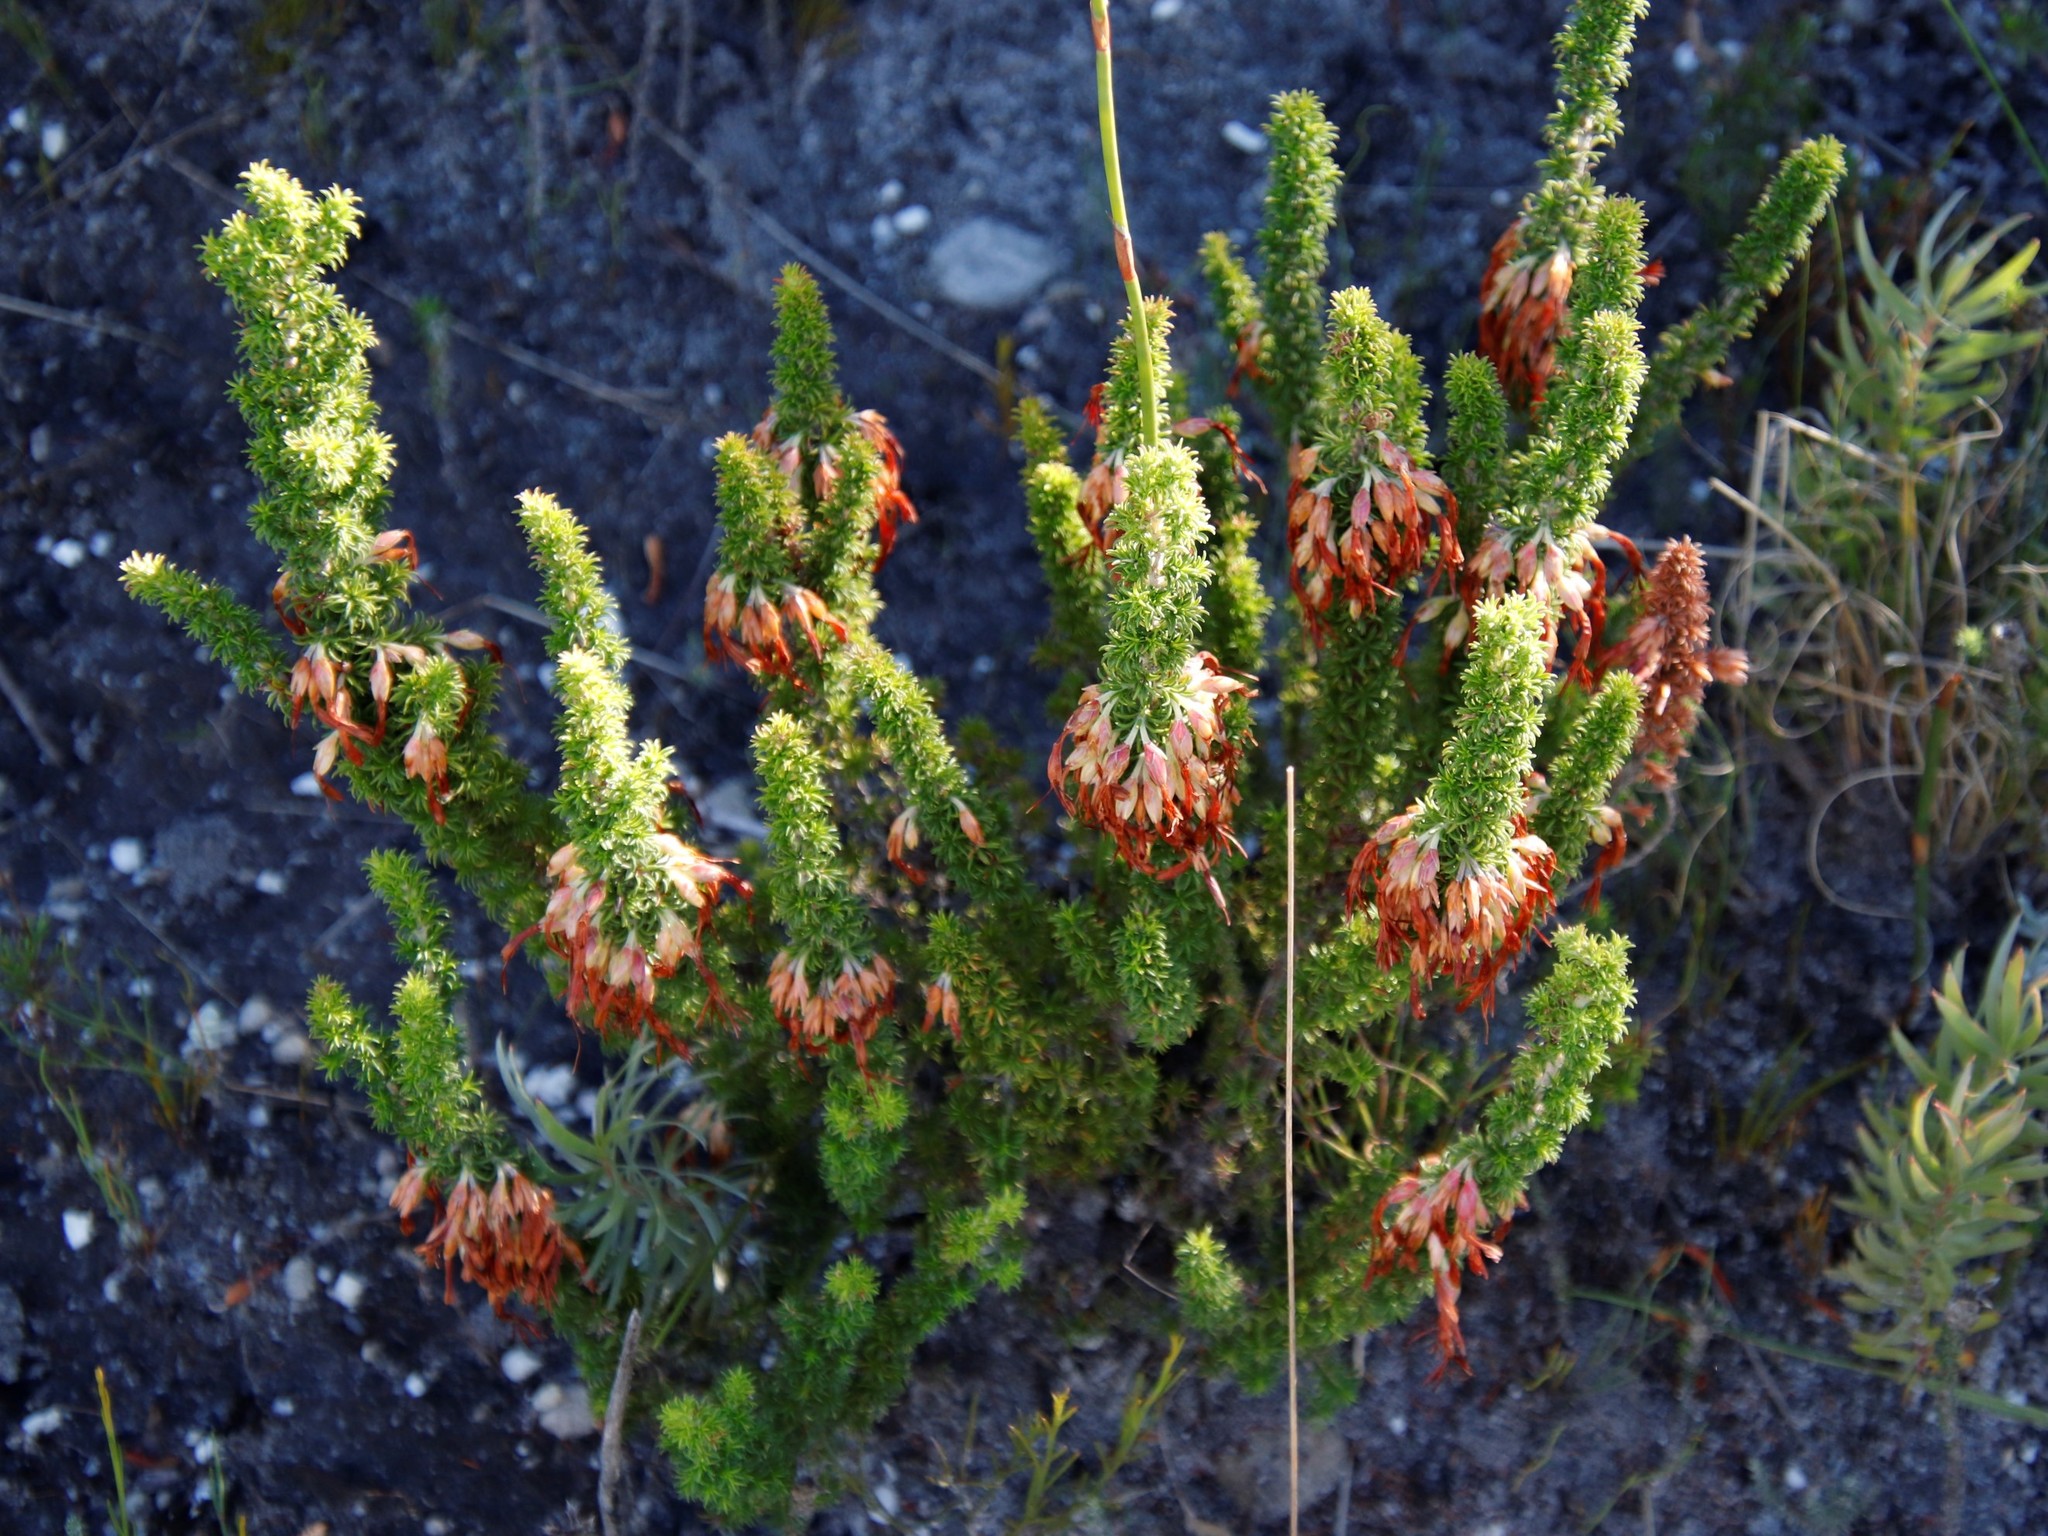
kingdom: Plantae
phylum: Tracheophyta
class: Magnoliopsida
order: Ericales
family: Ericaceae
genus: Erica
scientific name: Erica coccinea
